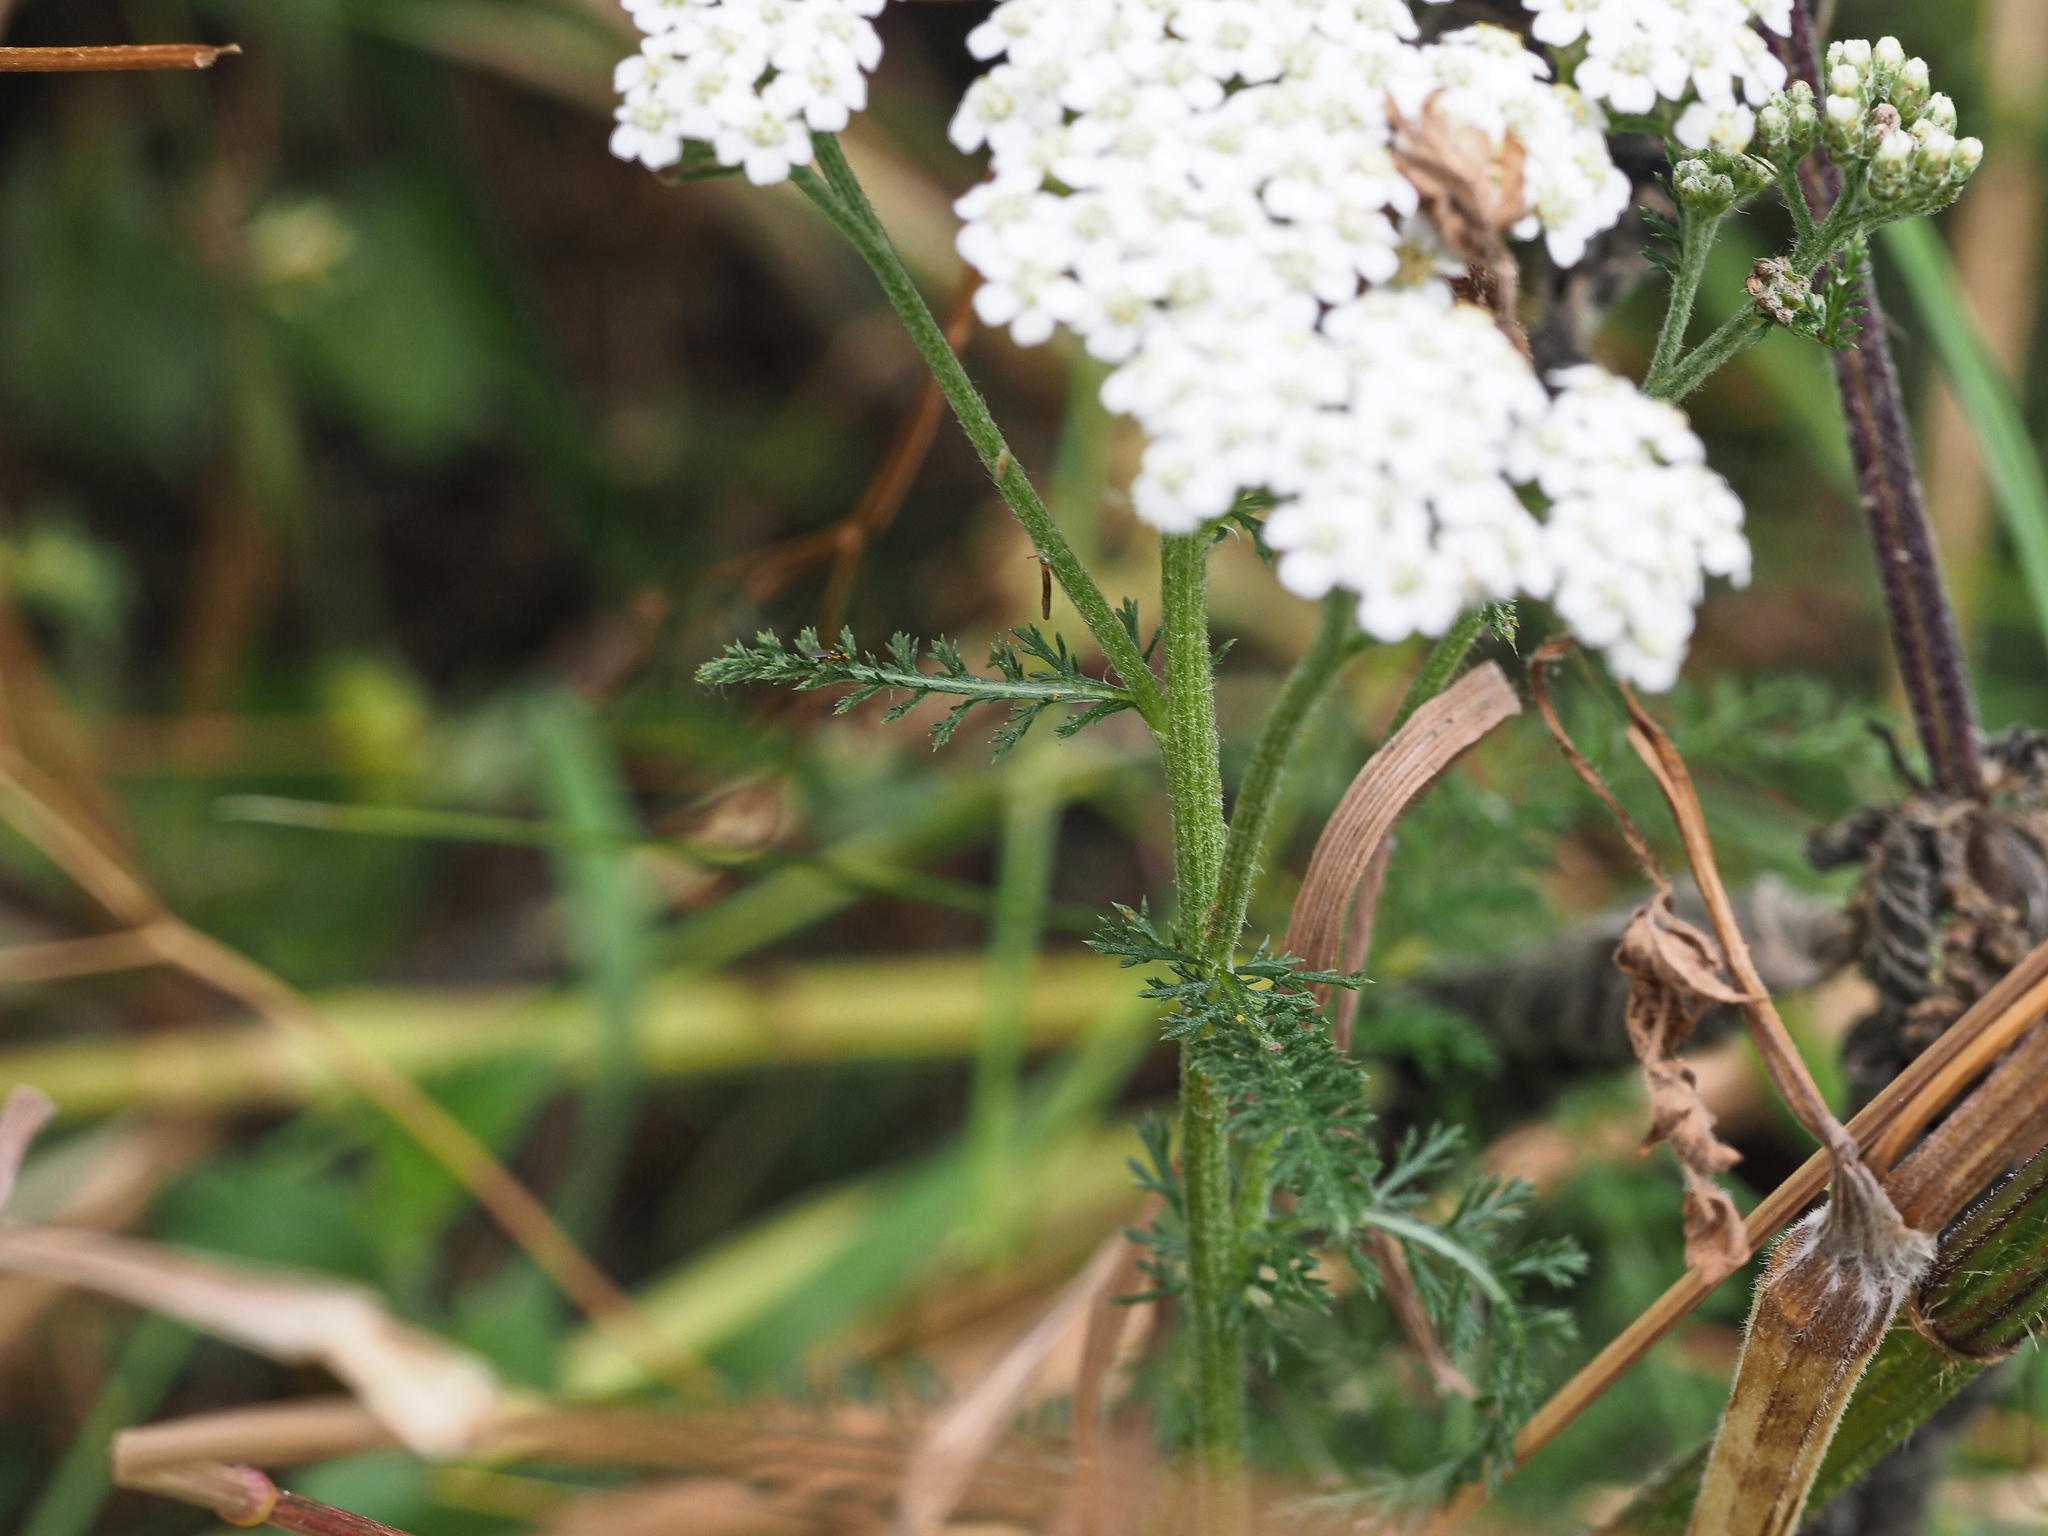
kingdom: Plantae
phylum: Tracheophyta
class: Magnoliopsida
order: Asterales
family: Asteraceae
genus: Achillea
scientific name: Achillea millefolium
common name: Yarrow
